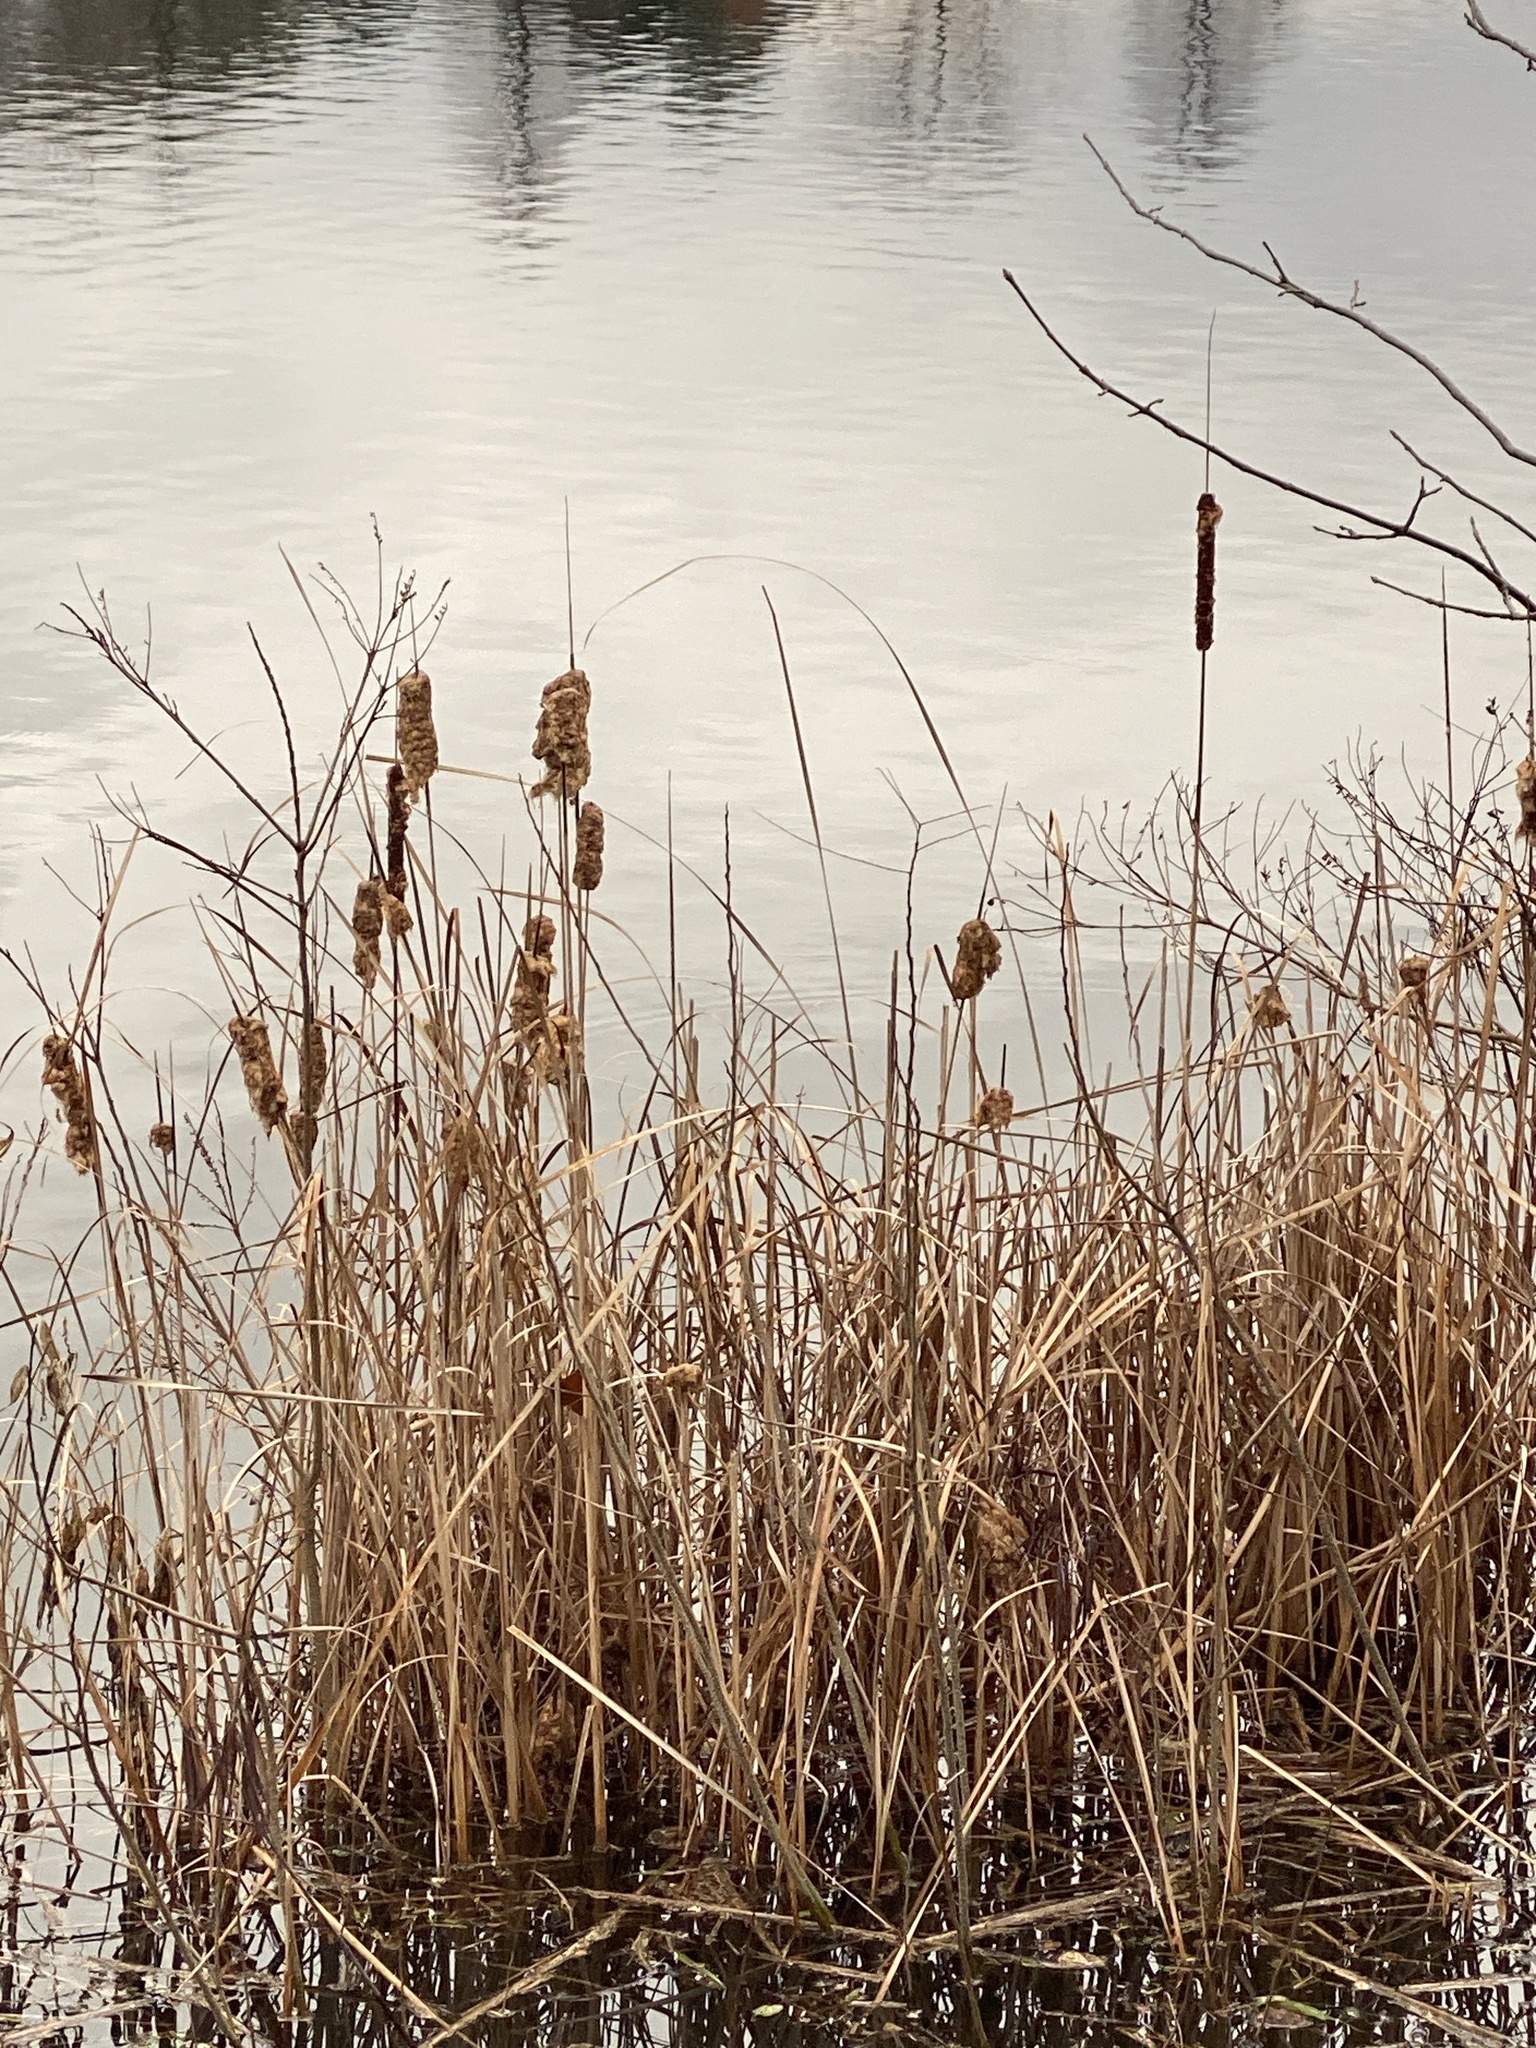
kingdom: Plantae
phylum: Tracheophyta
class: Liliopsida
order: Poales
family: Typhaceae
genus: Typha
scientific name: Typha
